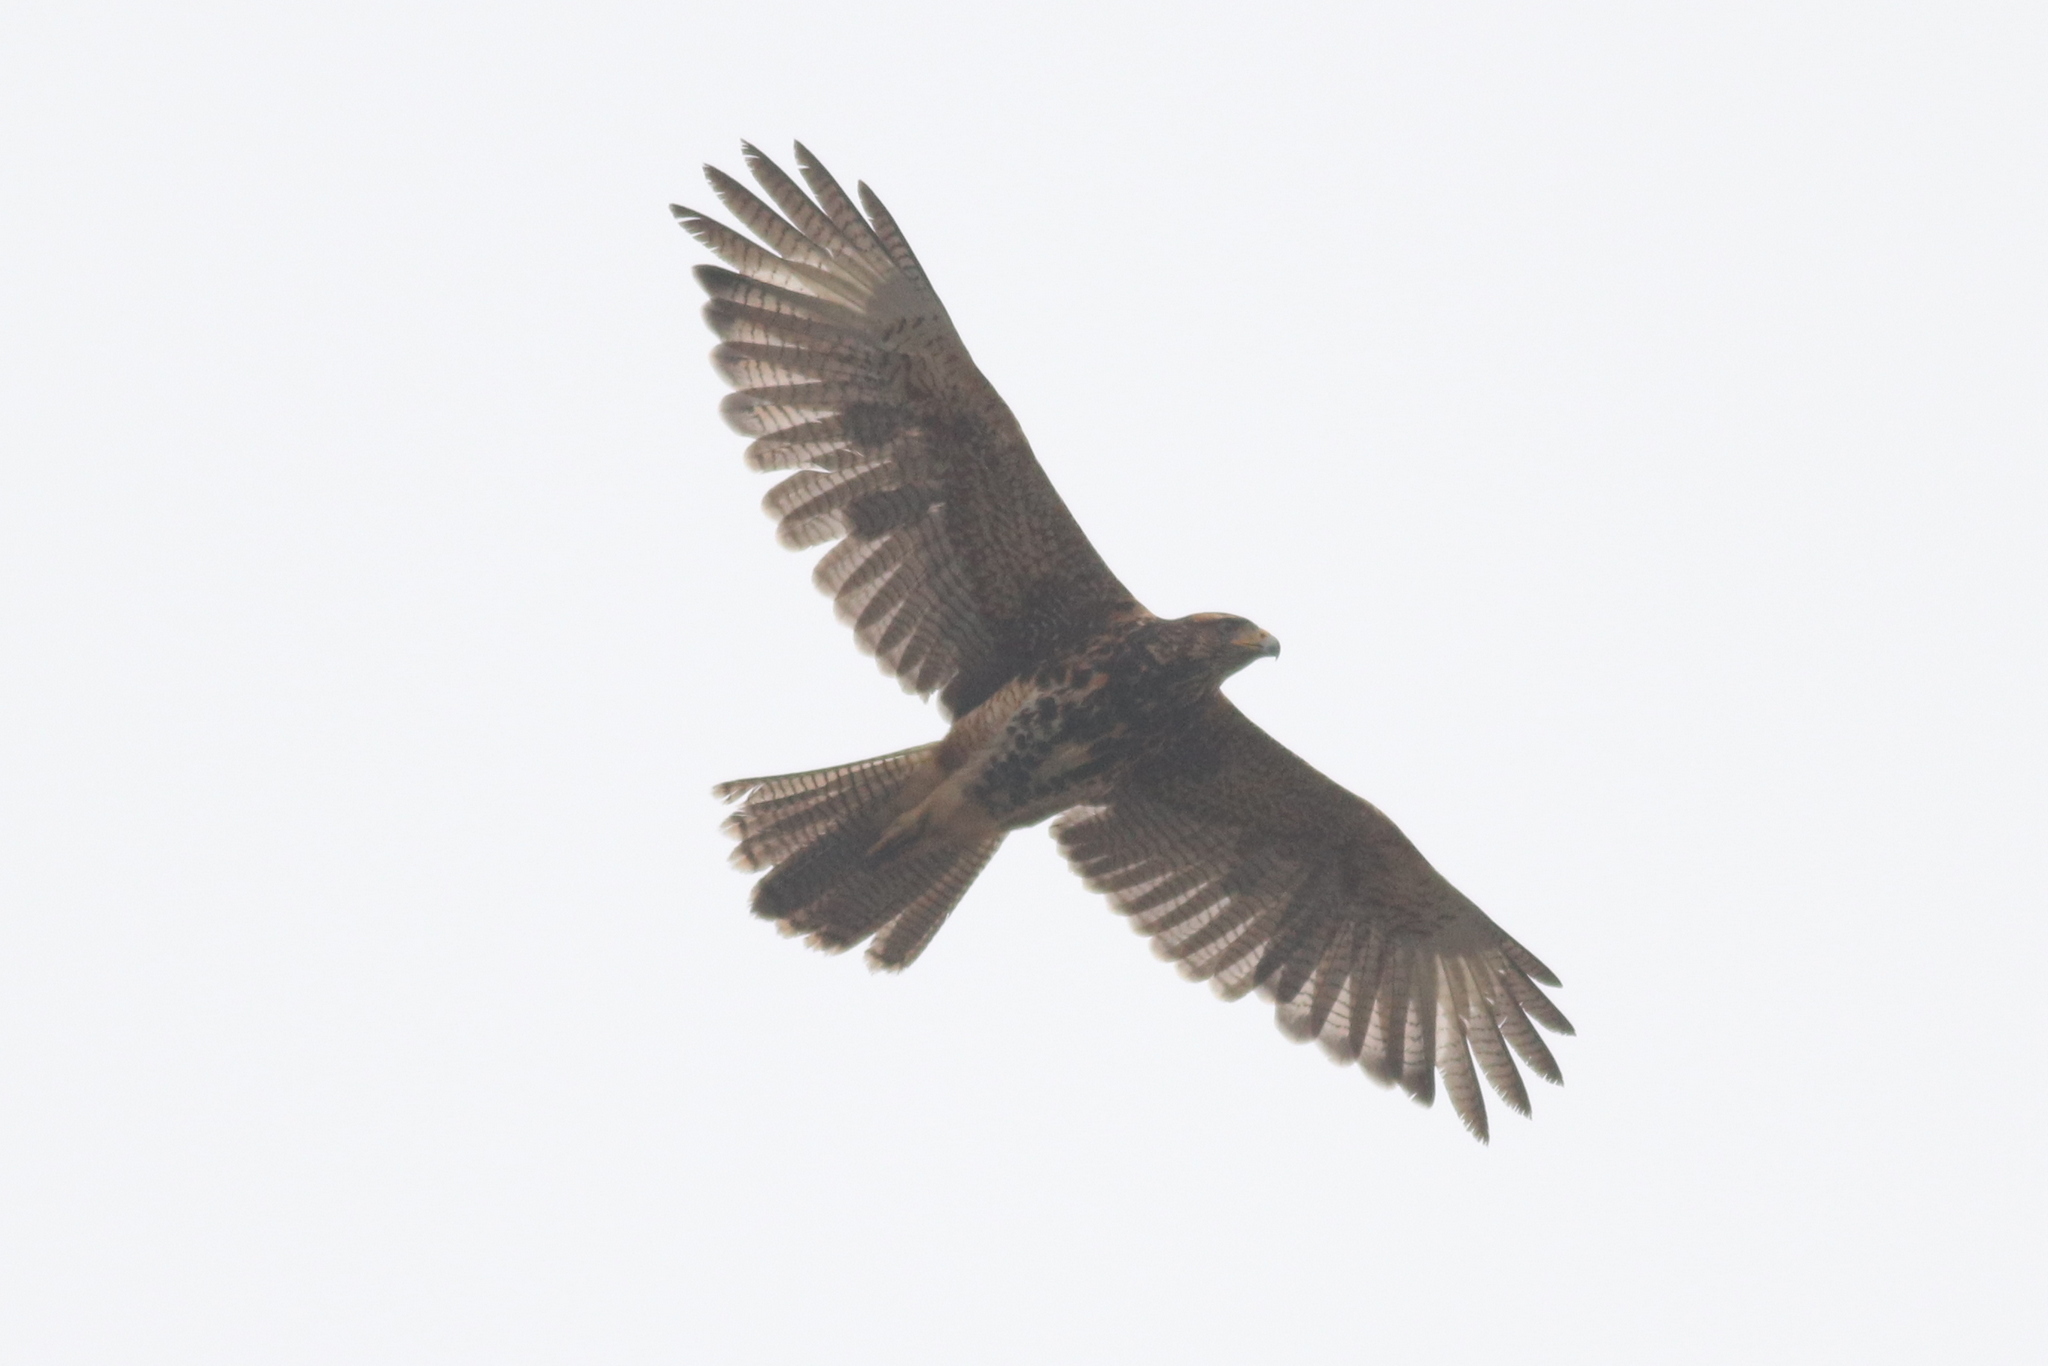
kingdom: Animalia
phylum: Chordata
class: Aves
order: Accipitriformes
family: Accipitridae
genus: Parabuteo
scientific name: Parabuteo unicinctus
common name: Harris's hawk
